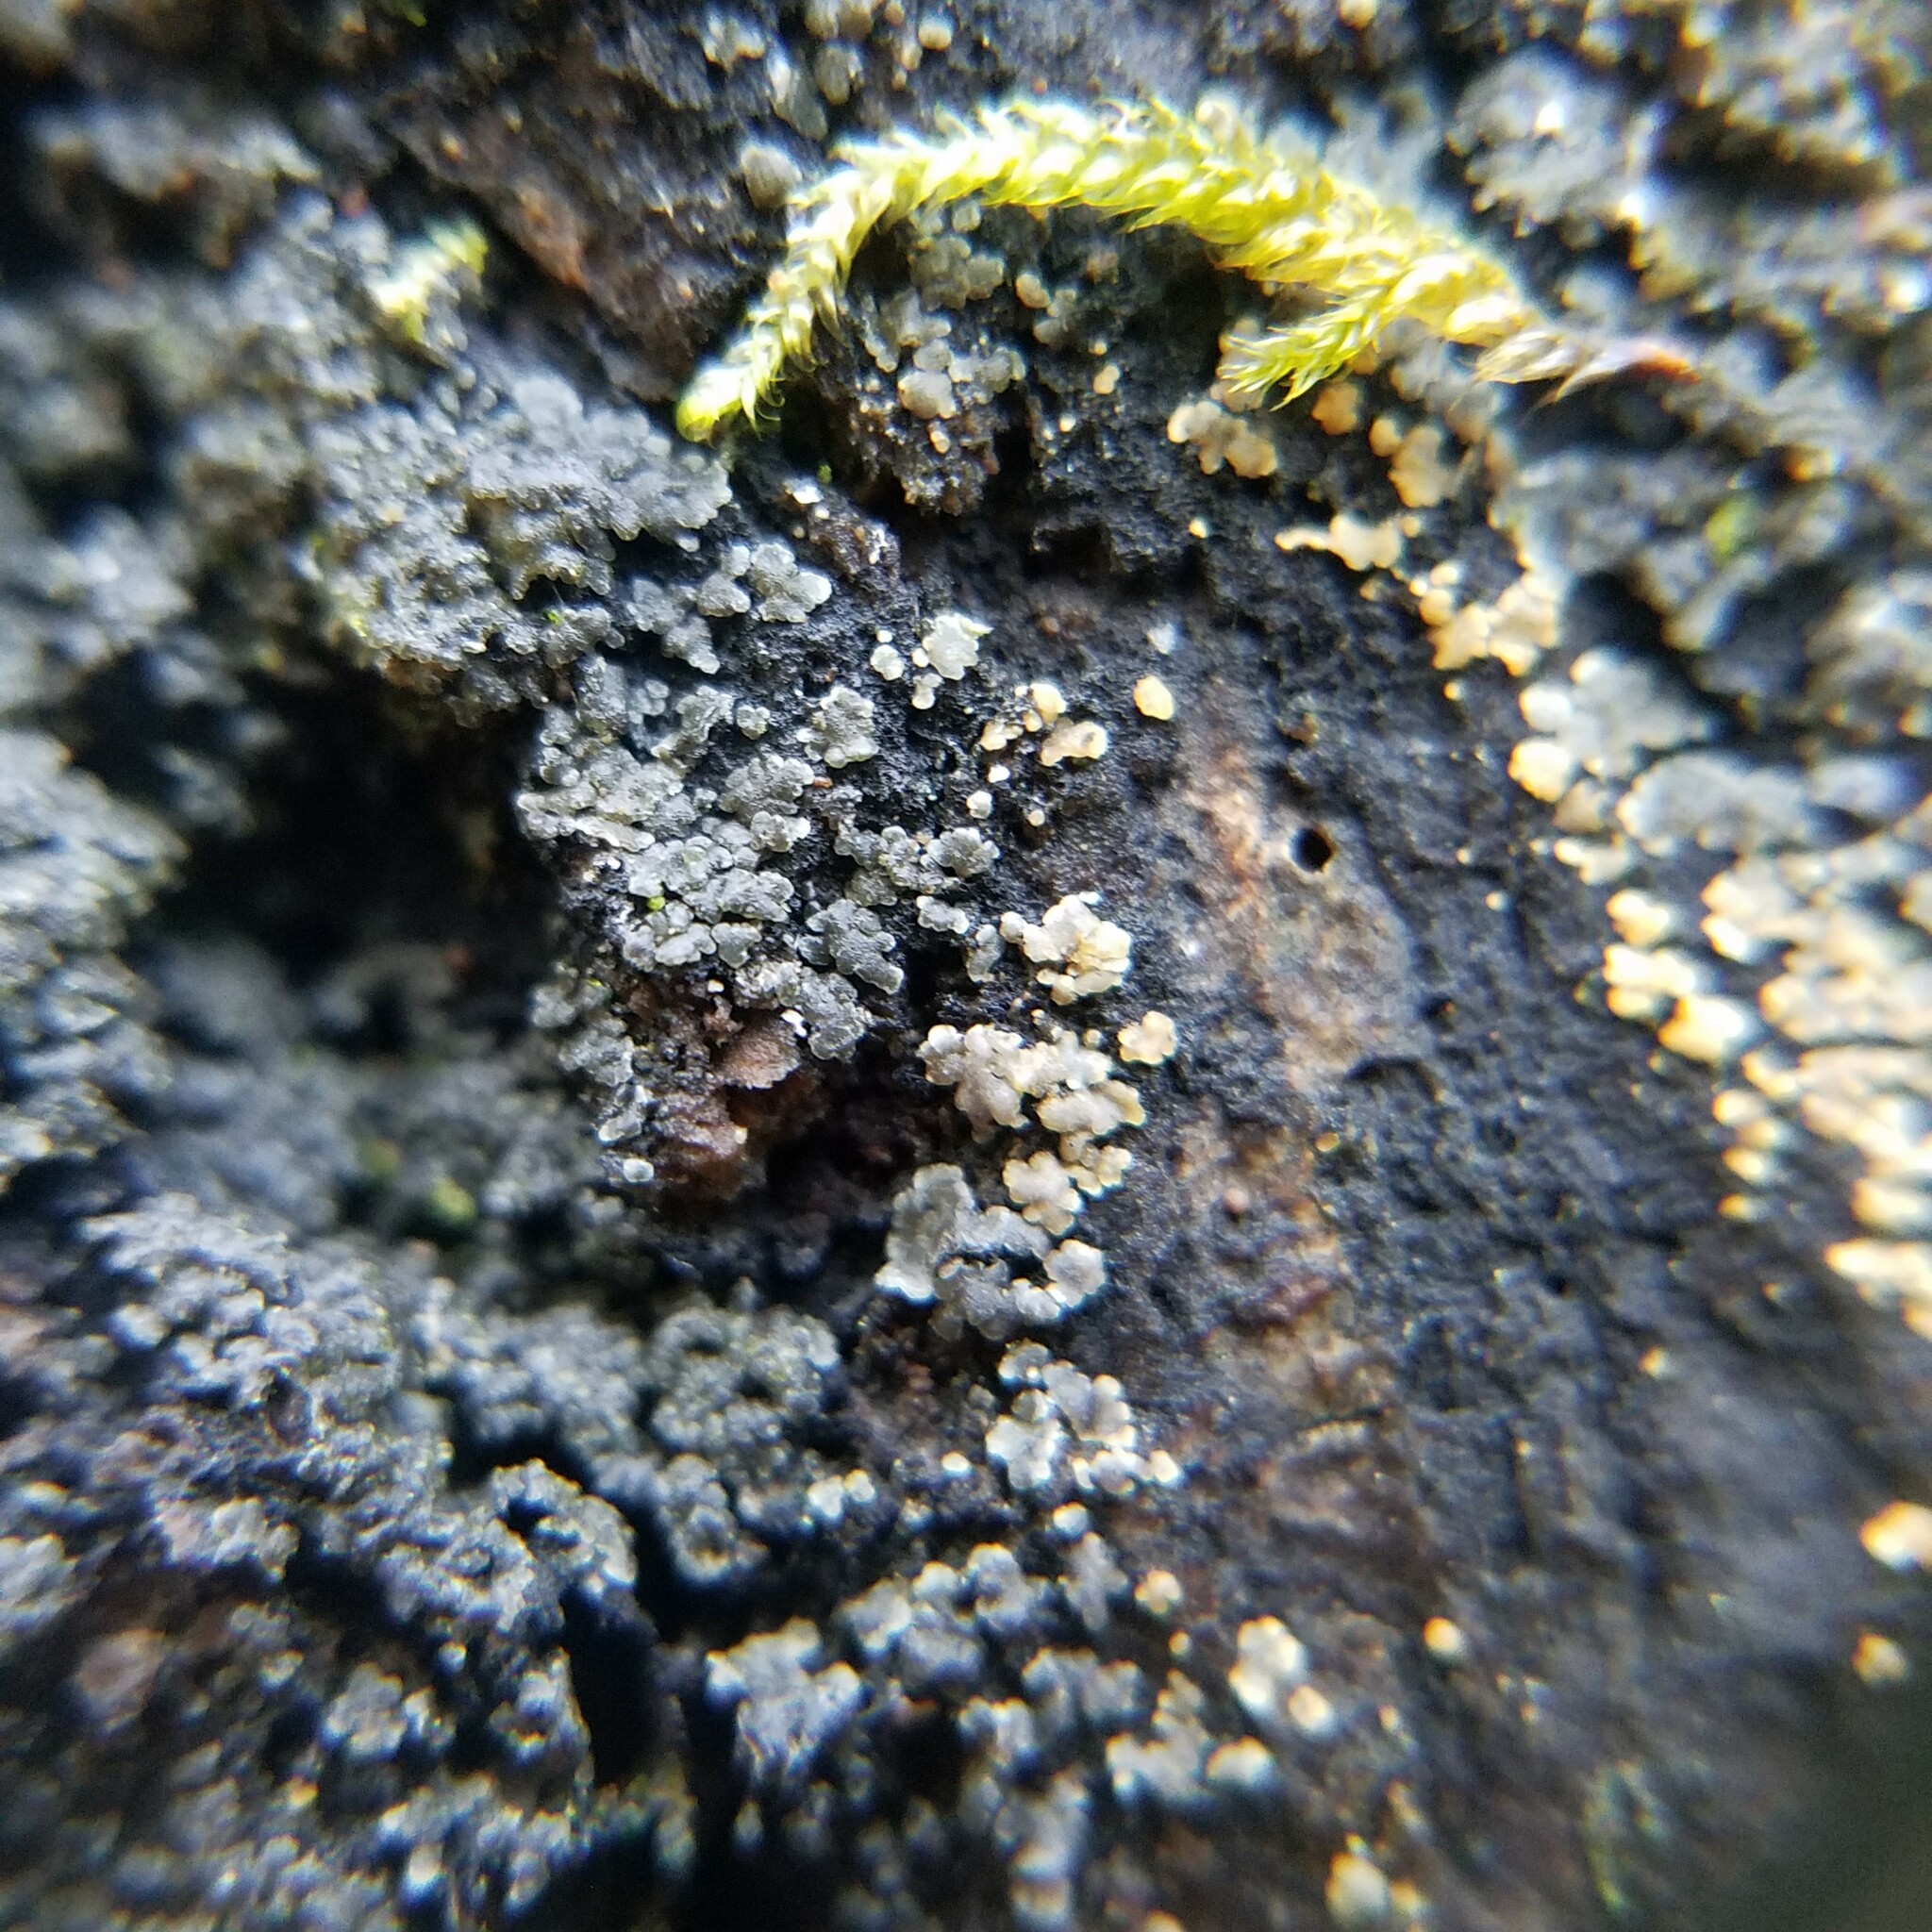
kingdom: Fungi
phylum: Ascomycota
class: Lecanoromycetes
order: Peltigerales
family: Pannariaceae
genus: Fuscopannaria
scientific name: Fuscopannaria leucosticta
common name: Rimmed shingle lichen
